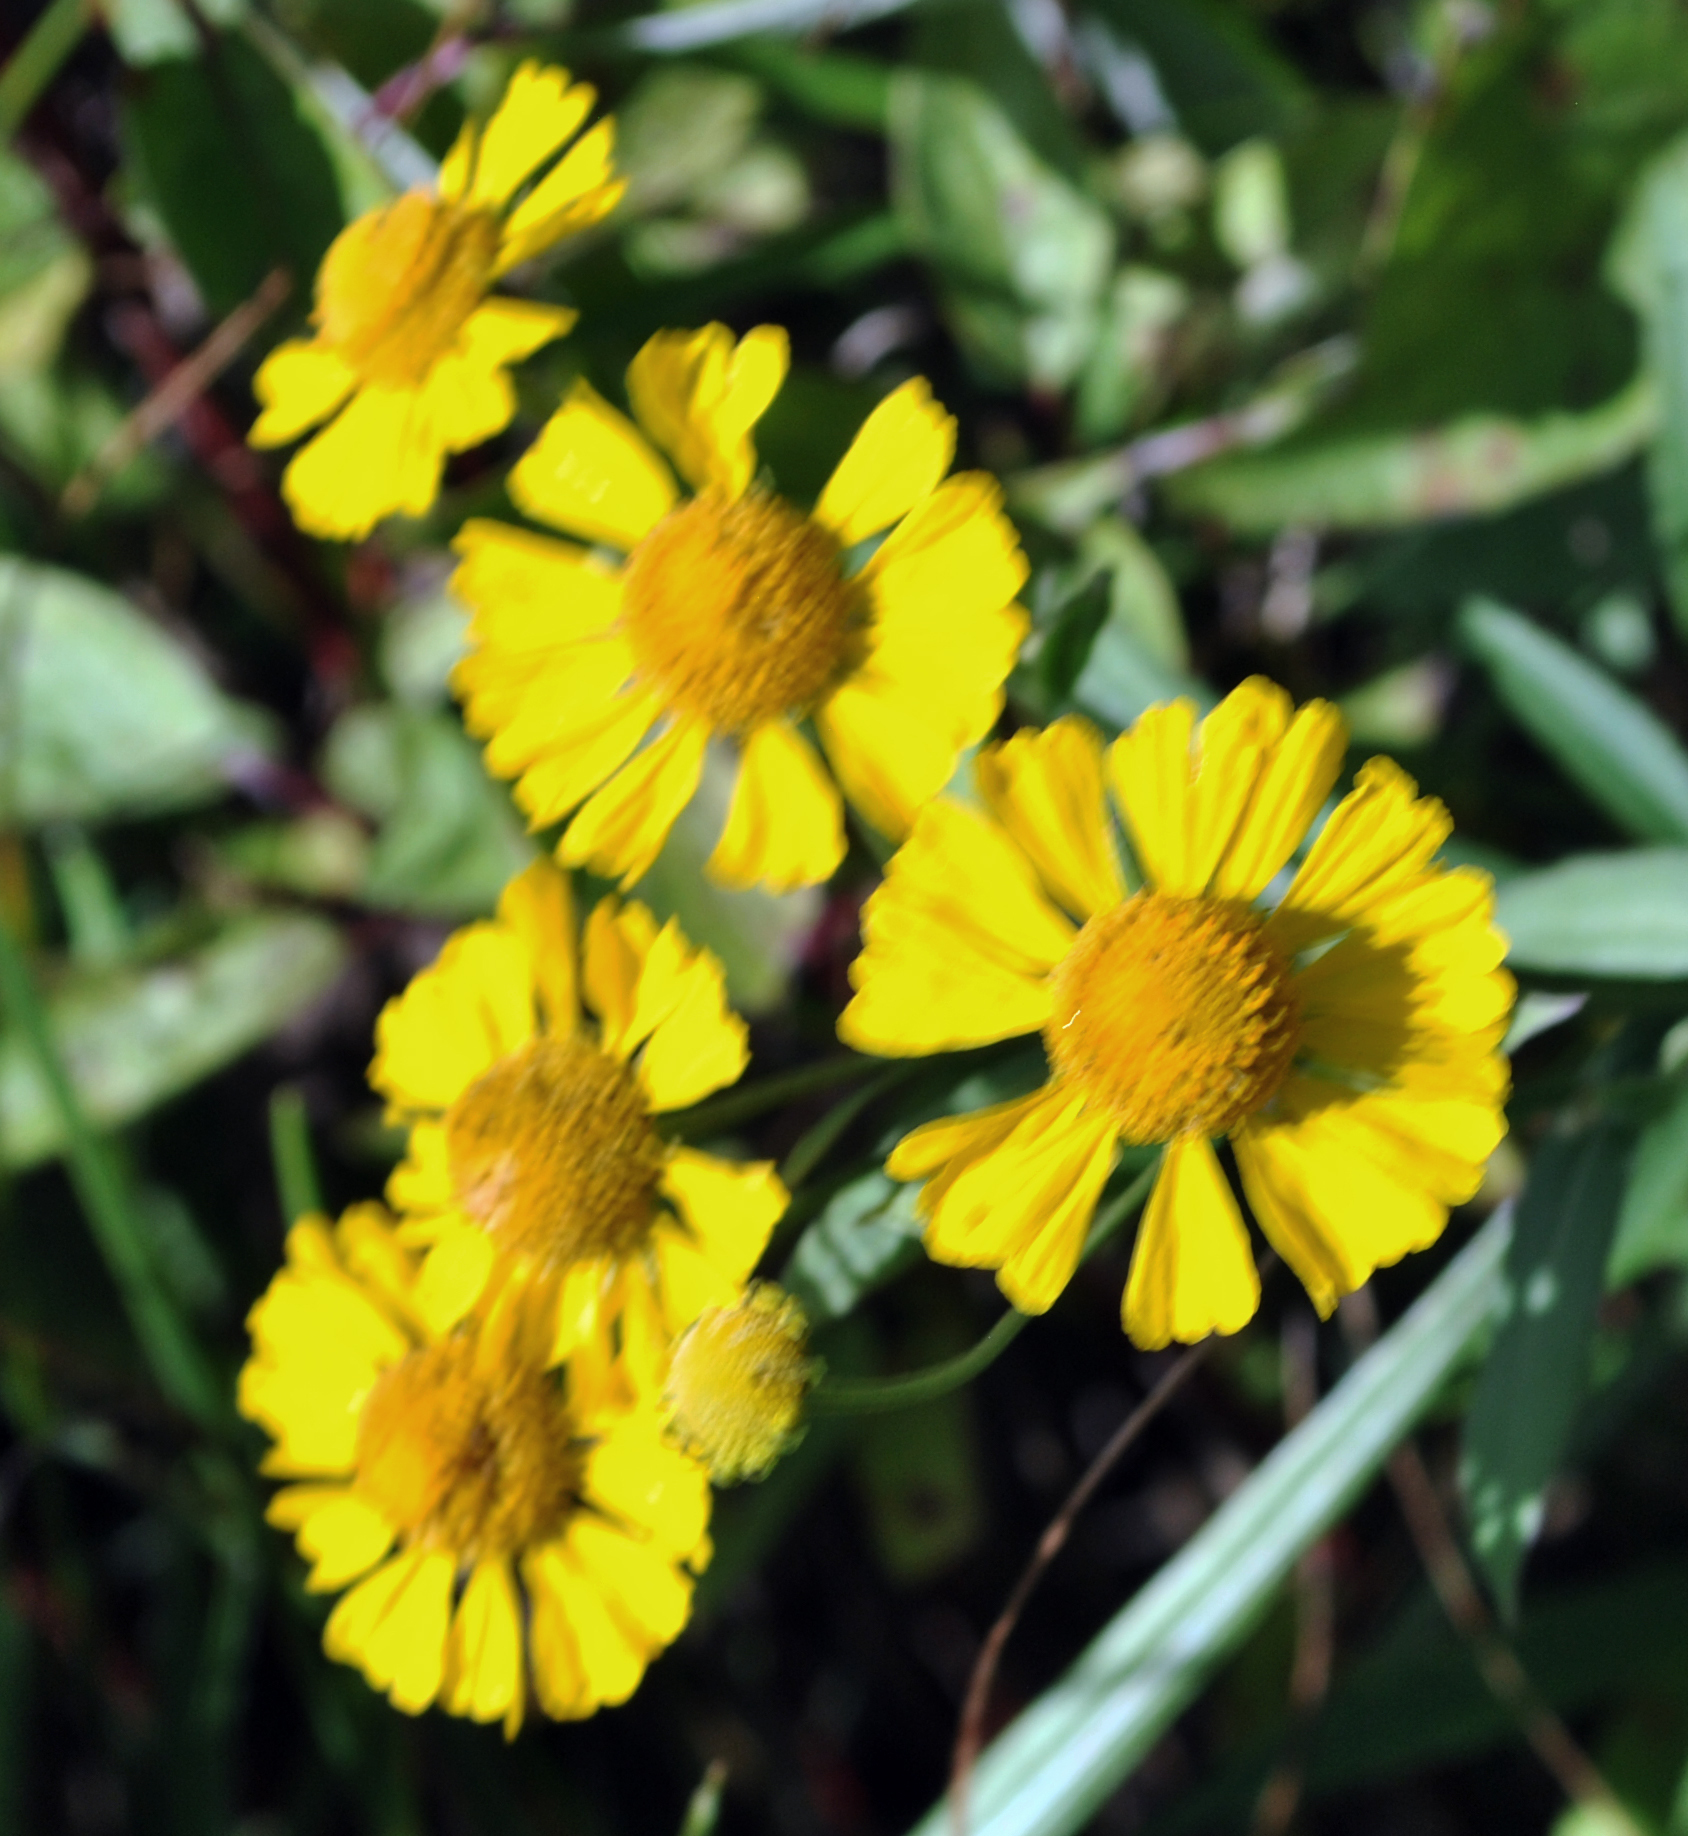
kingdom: Plantae
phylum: Tracheophyta
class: Magnoliopsida
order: Asterales
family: Asteraceae
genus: Helenium
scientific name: Helenium autumnale
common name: Sneezeweed
